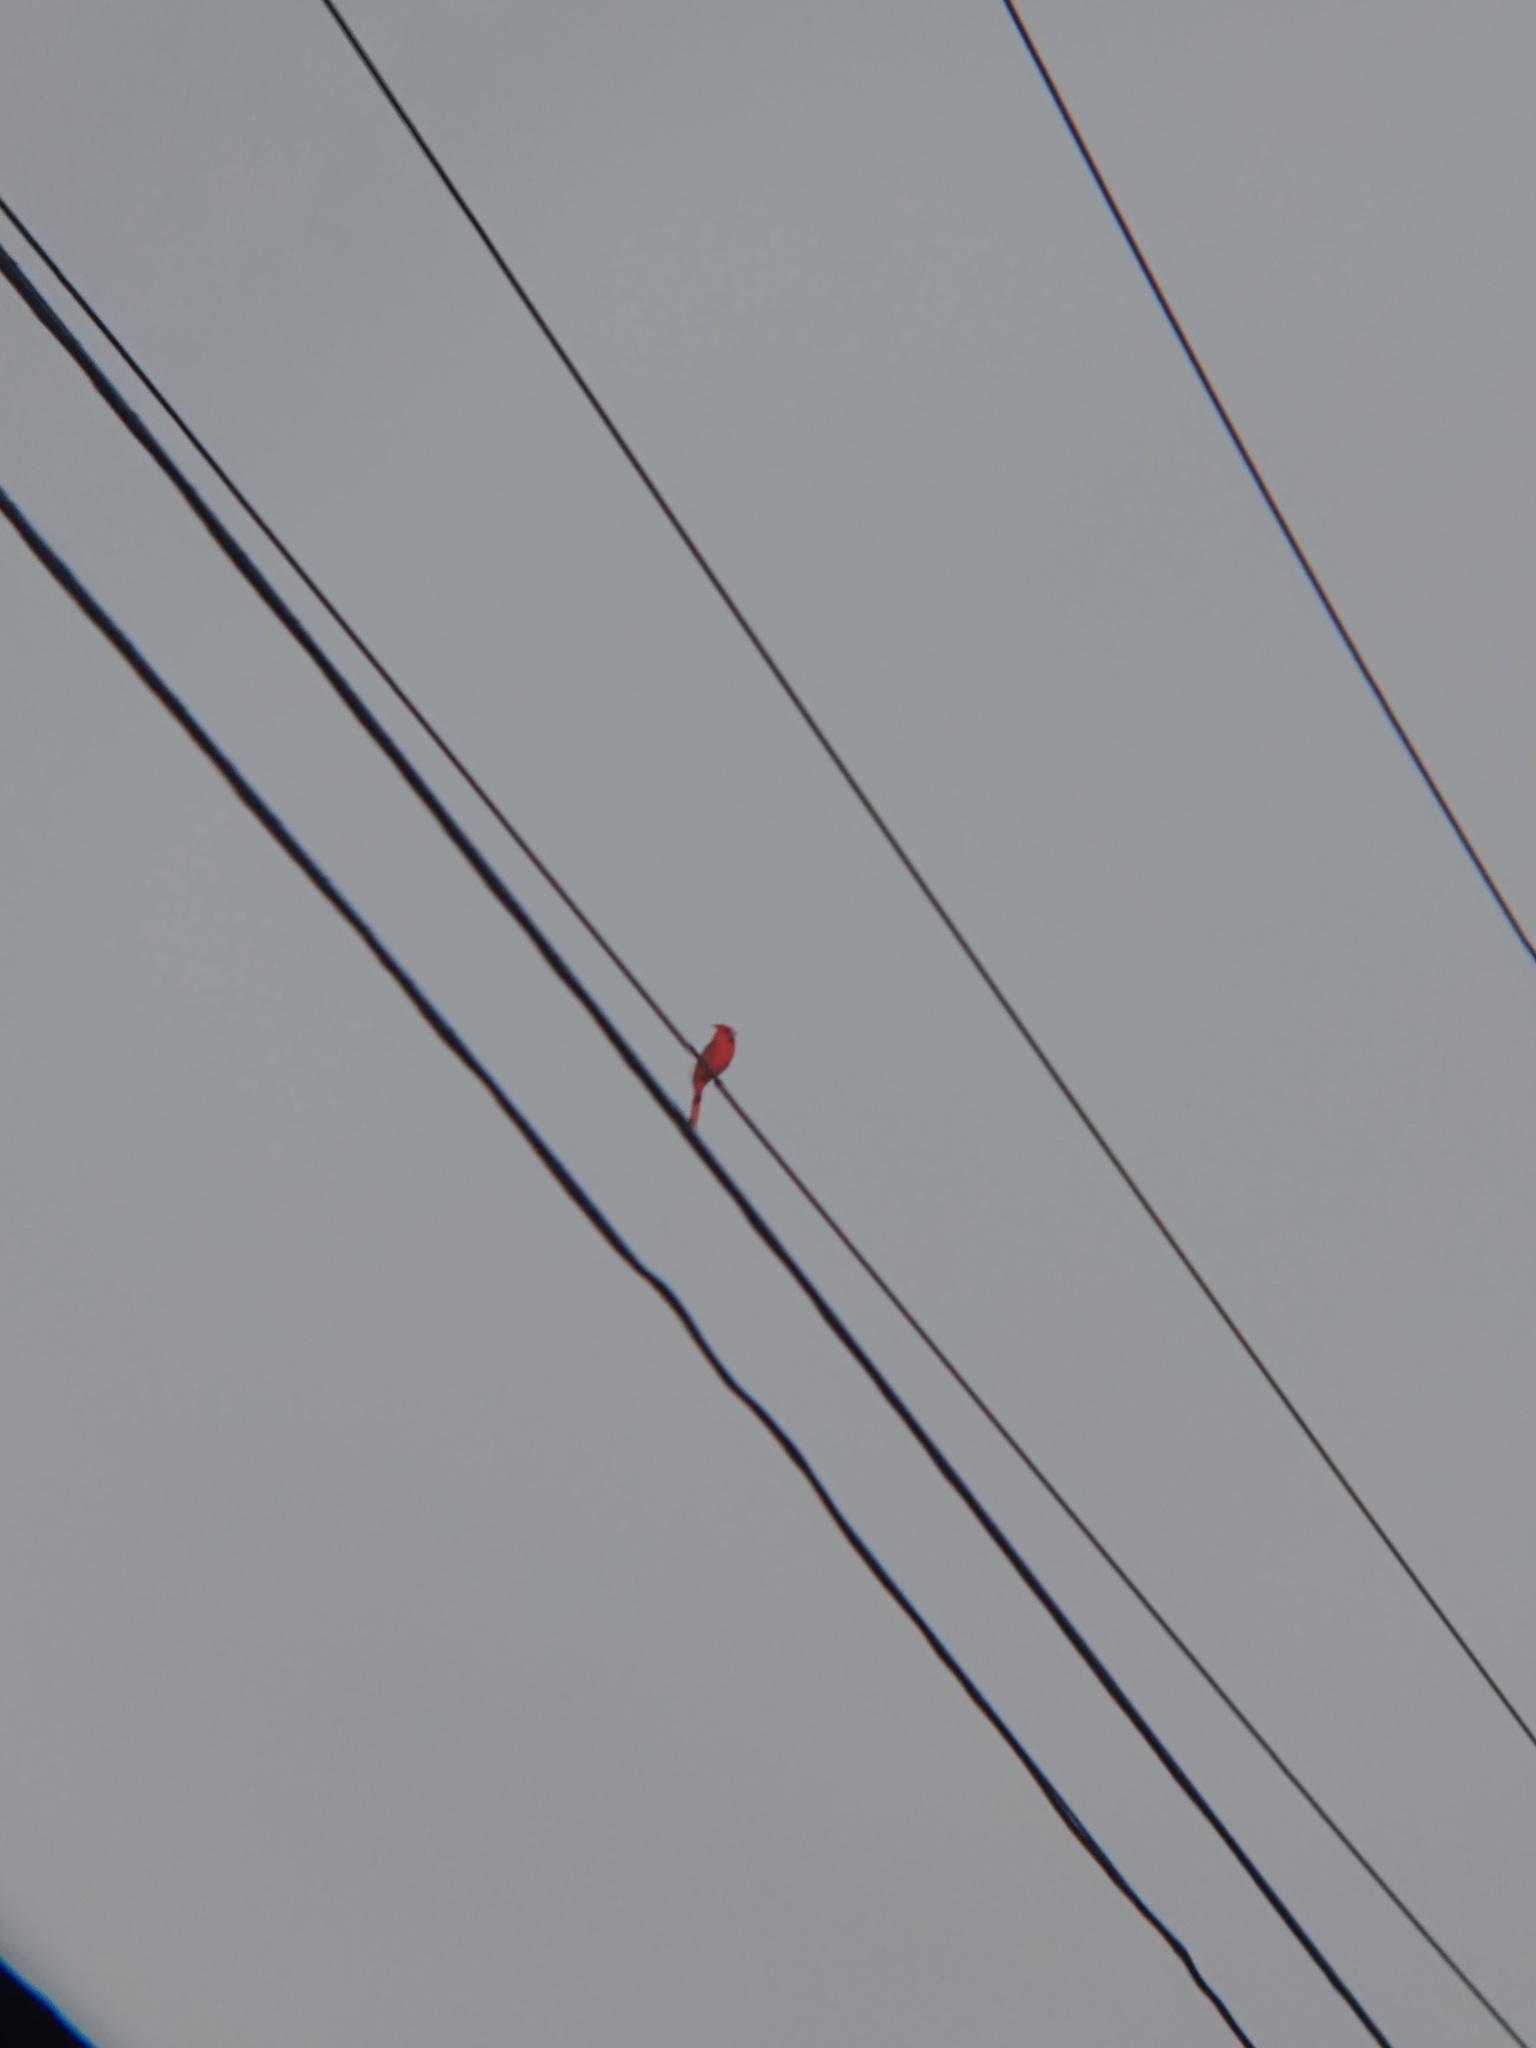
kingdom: Animalia
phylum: Chordata
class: Aves
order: Passeriformes
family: Cardinalidae
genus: Cardinalis
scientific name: Cardinalis cardinalis
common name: Northern cardinal
